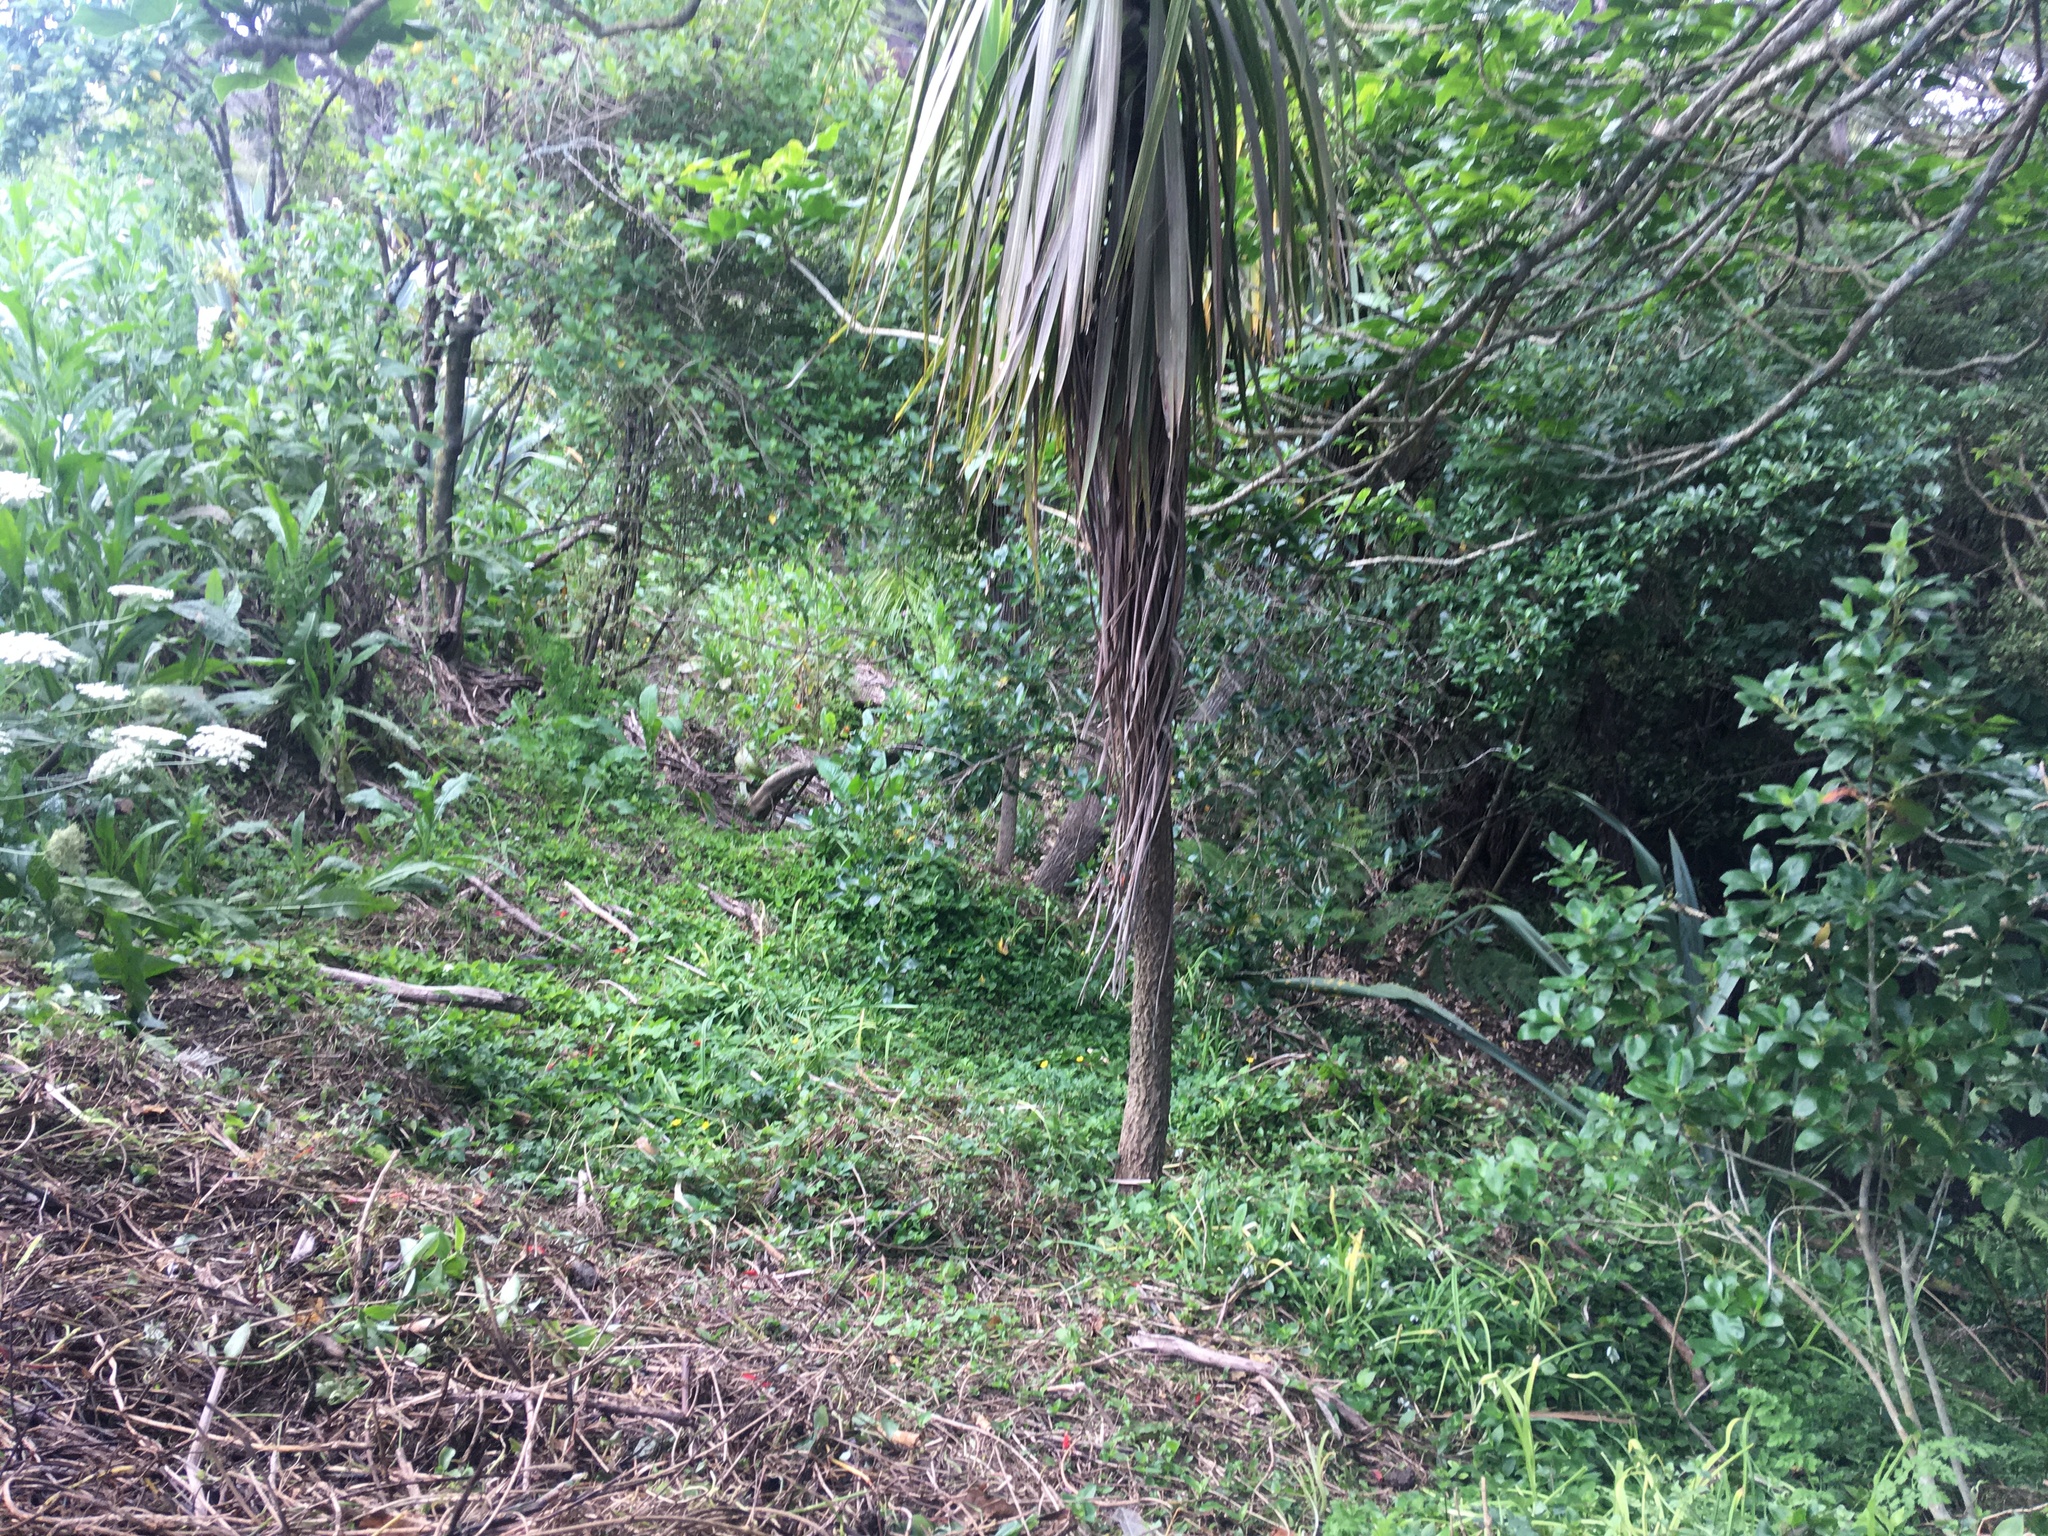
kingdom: Plantae
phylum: Tracheophyta
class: Magnoliopsida
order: Gentianales
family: Rubiaceae
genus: Coprosma
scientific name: Coprosma robusta
